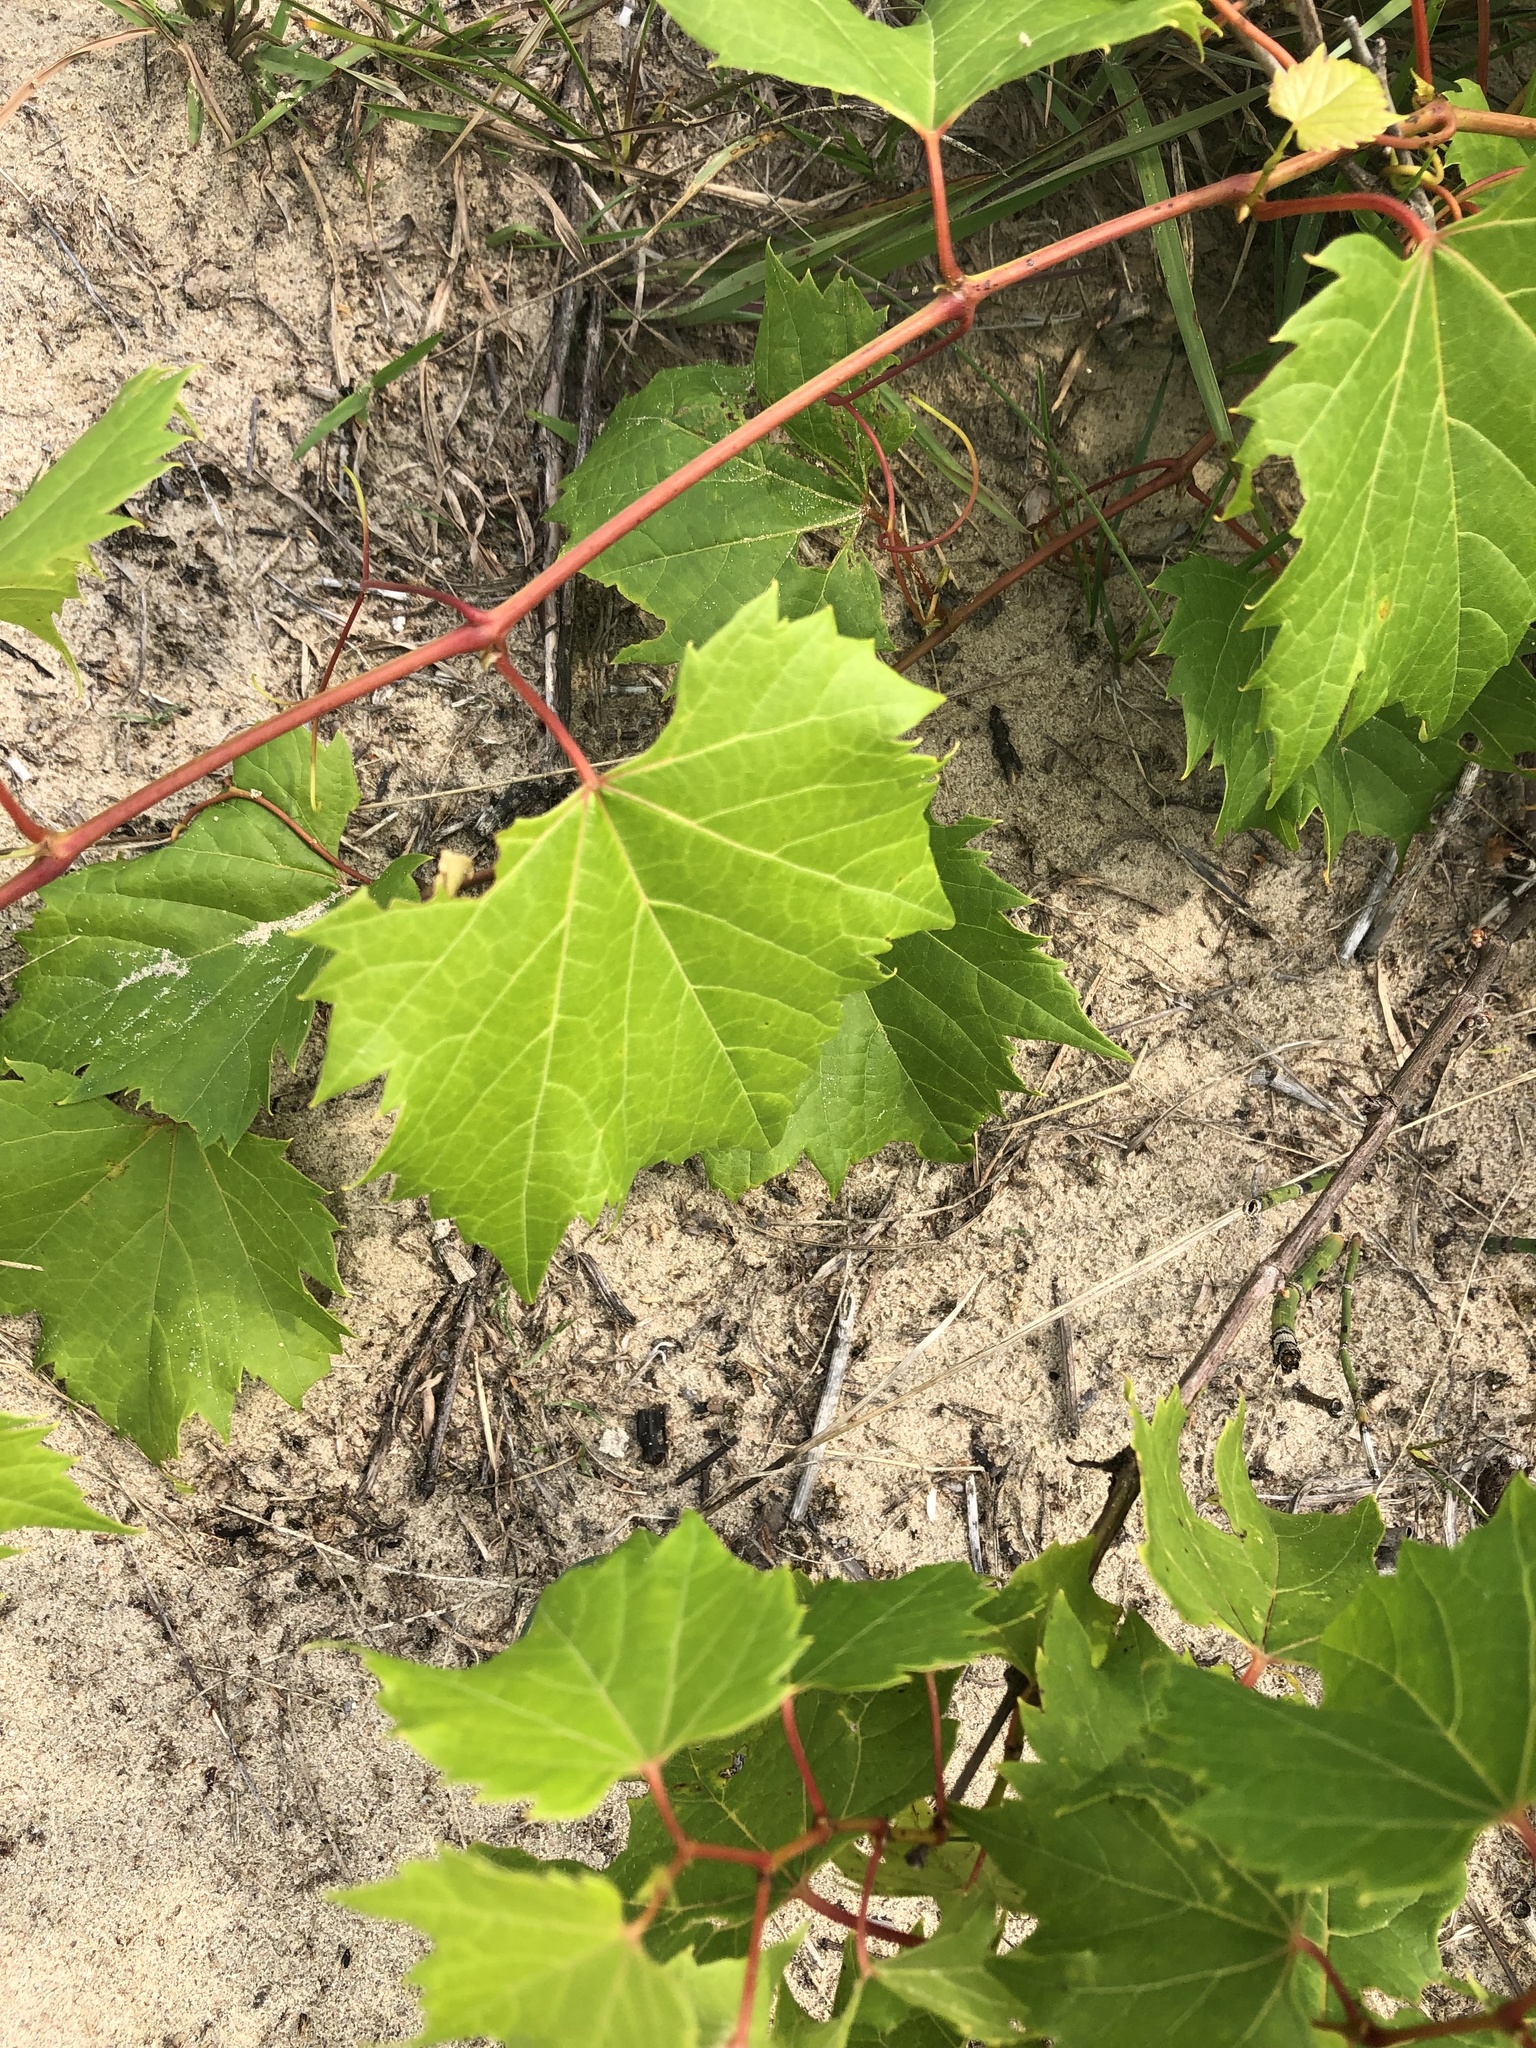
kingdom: Plantae
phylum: Tracheophyta
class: Magnoliopsida
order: Vitales
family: Vitaceae
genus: Vitis
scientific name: Vitis riparia
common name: Frost grape
